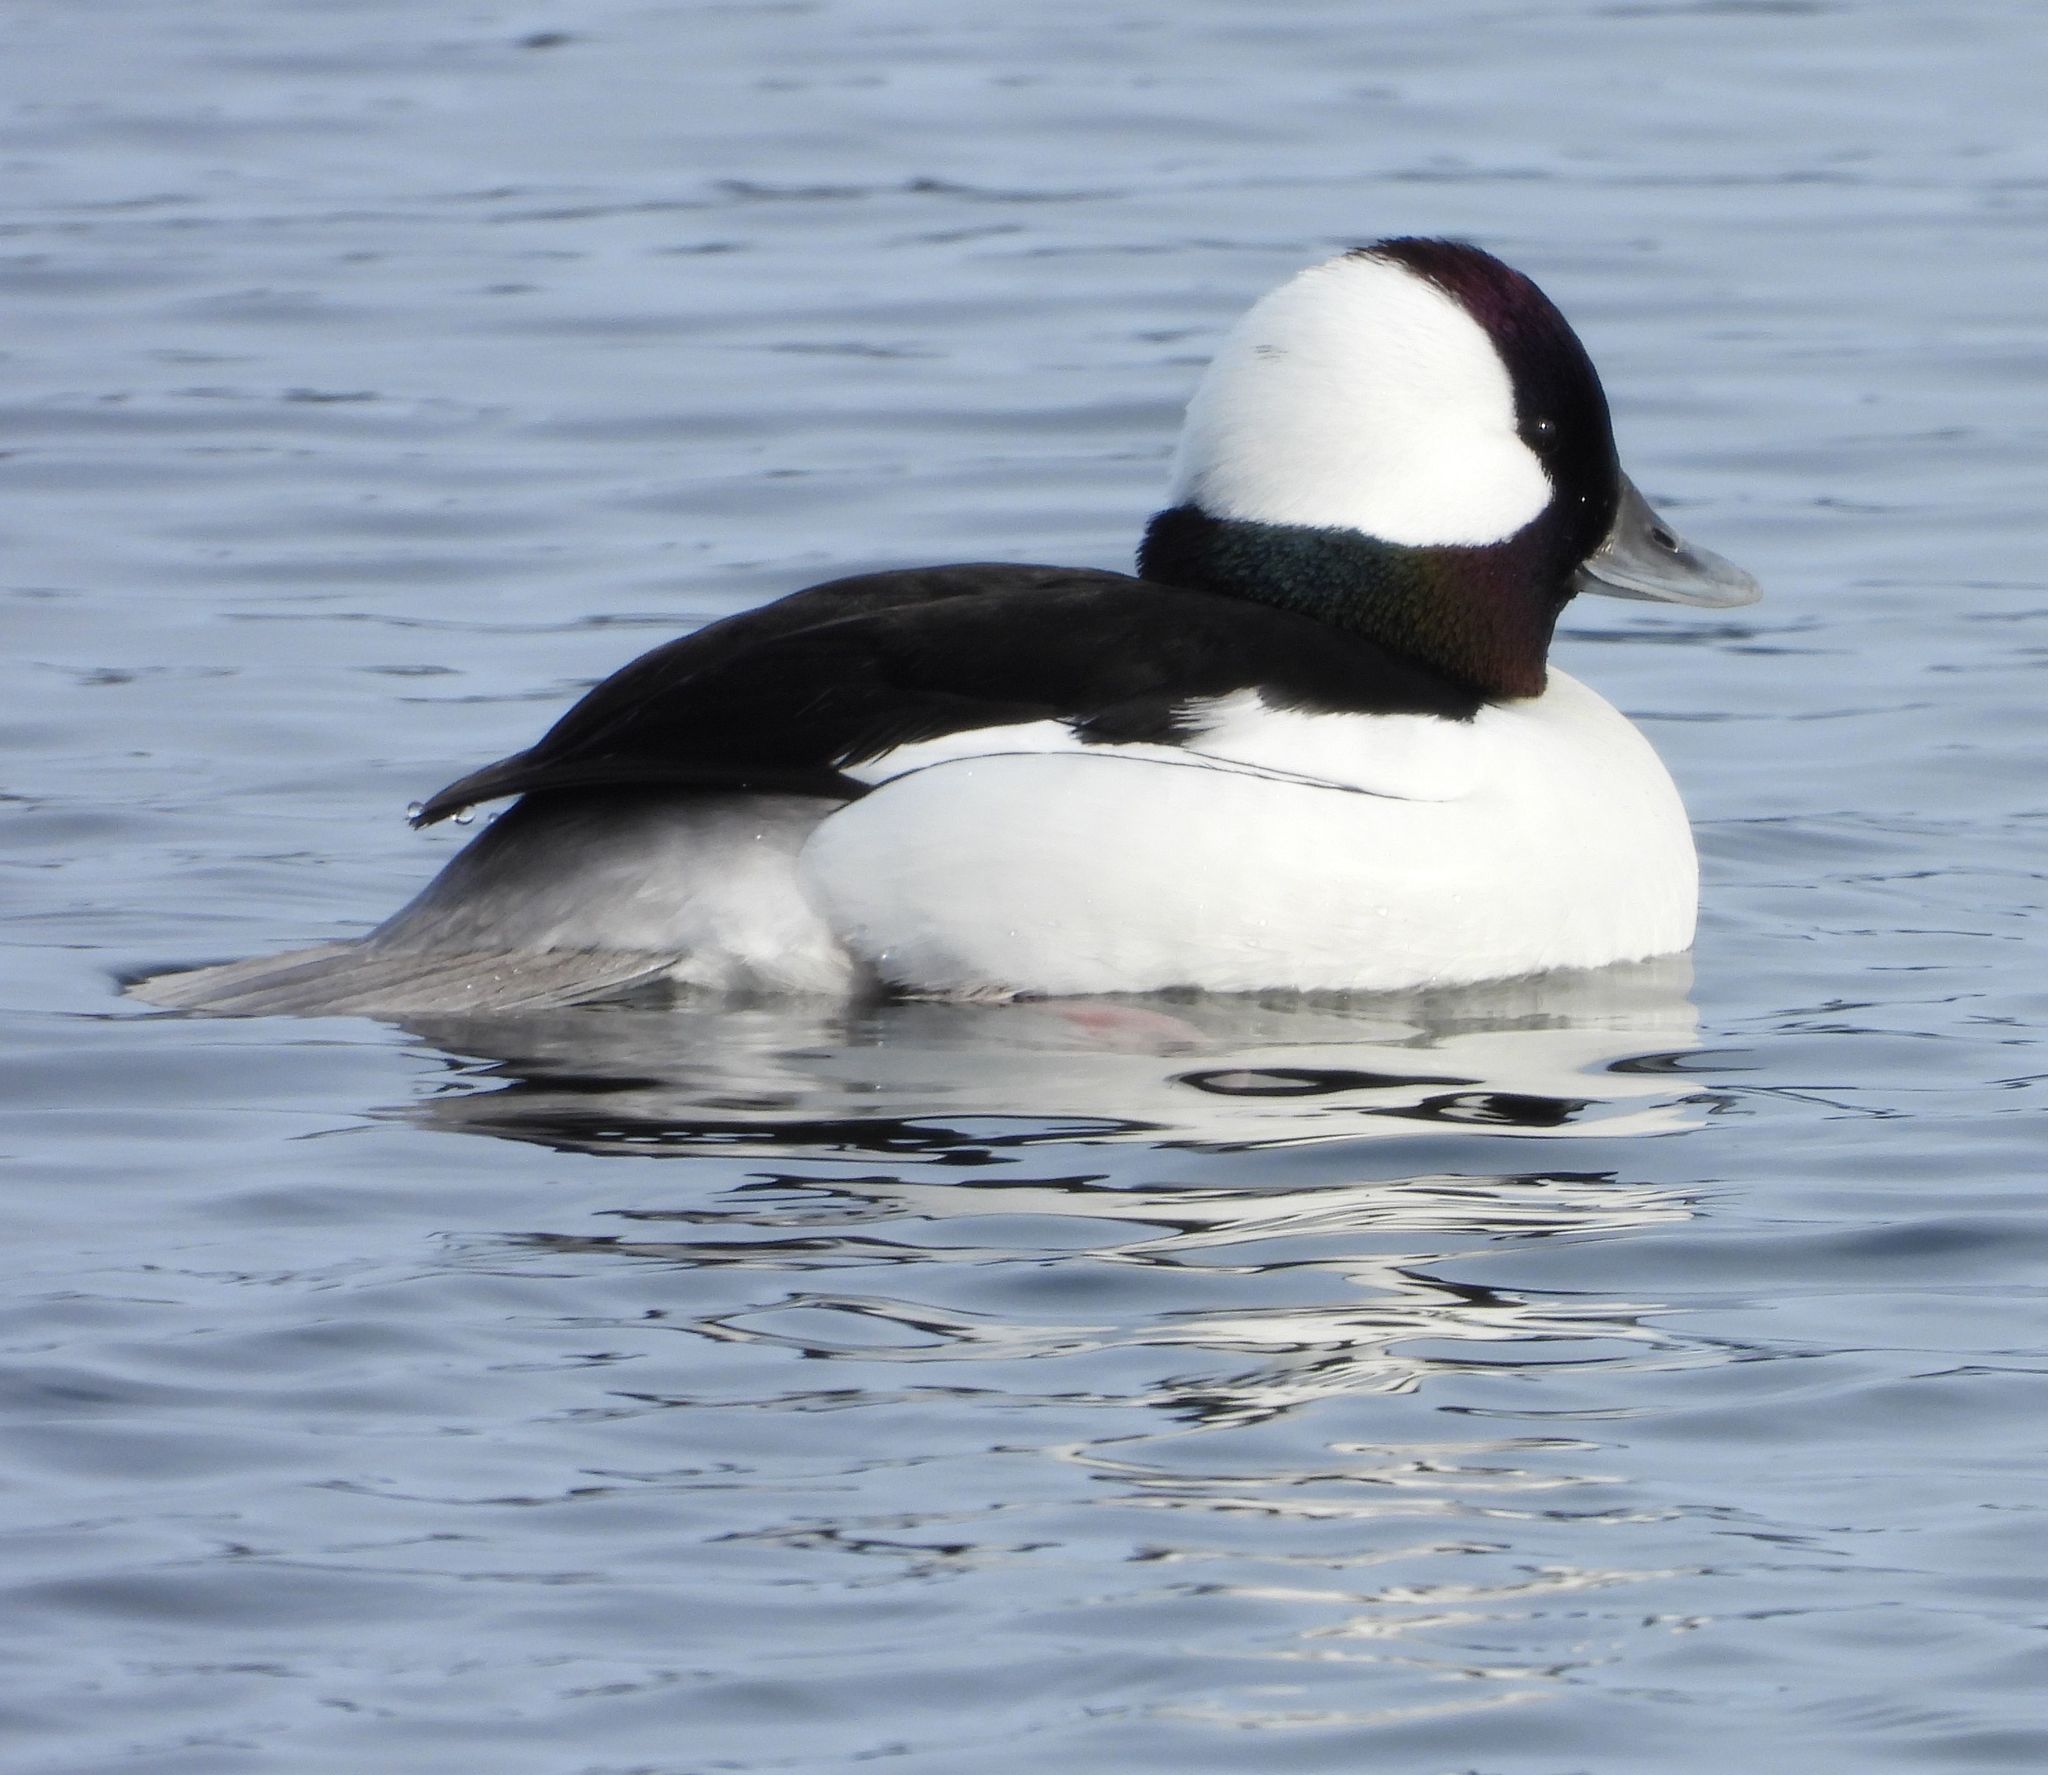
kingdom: Animalia
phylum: Chordata
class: Aves
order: Anseriformes
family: Anatidae
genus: Bucephala
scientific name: Bucephala albeola
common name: Bufflehead
